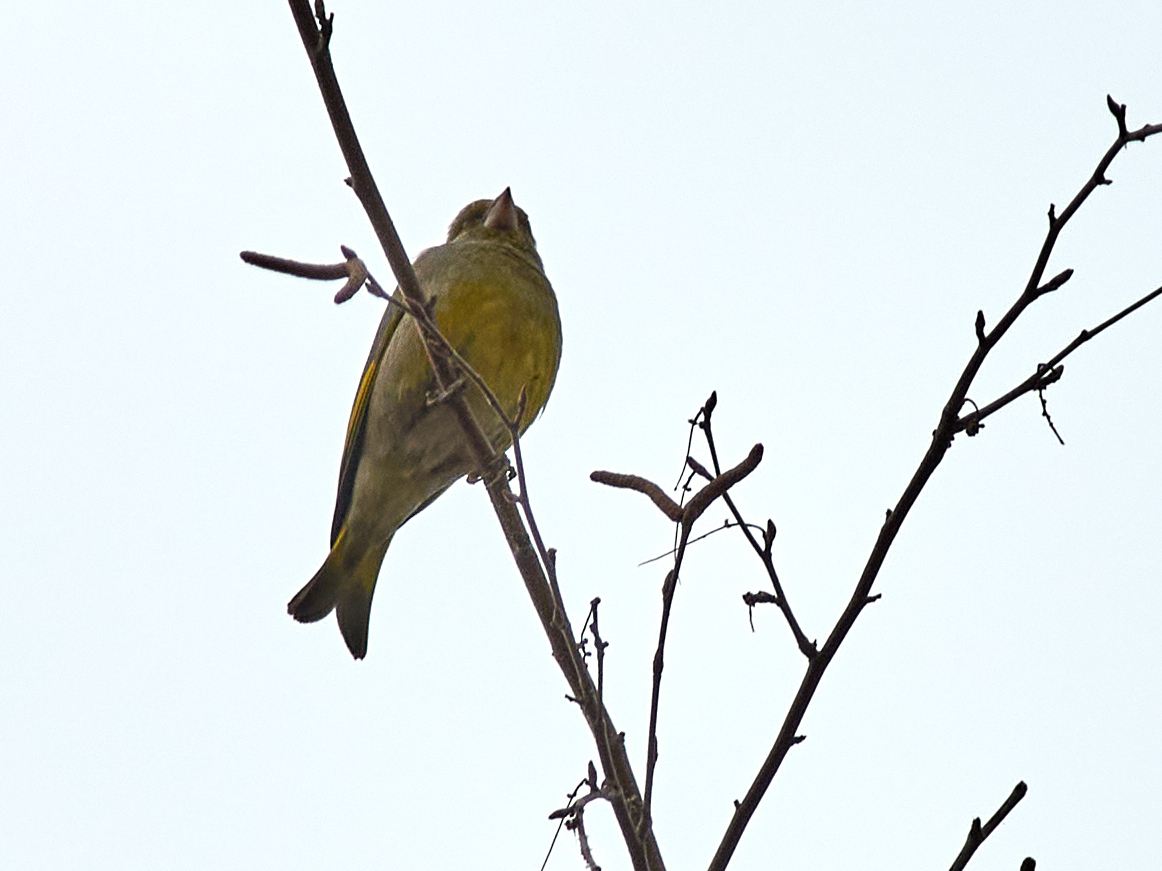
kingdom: Plantae
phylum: Tracheophyta
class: Liliopsida
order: Poales
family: Poaceae
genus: Chloris
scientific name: Chloris chloris
